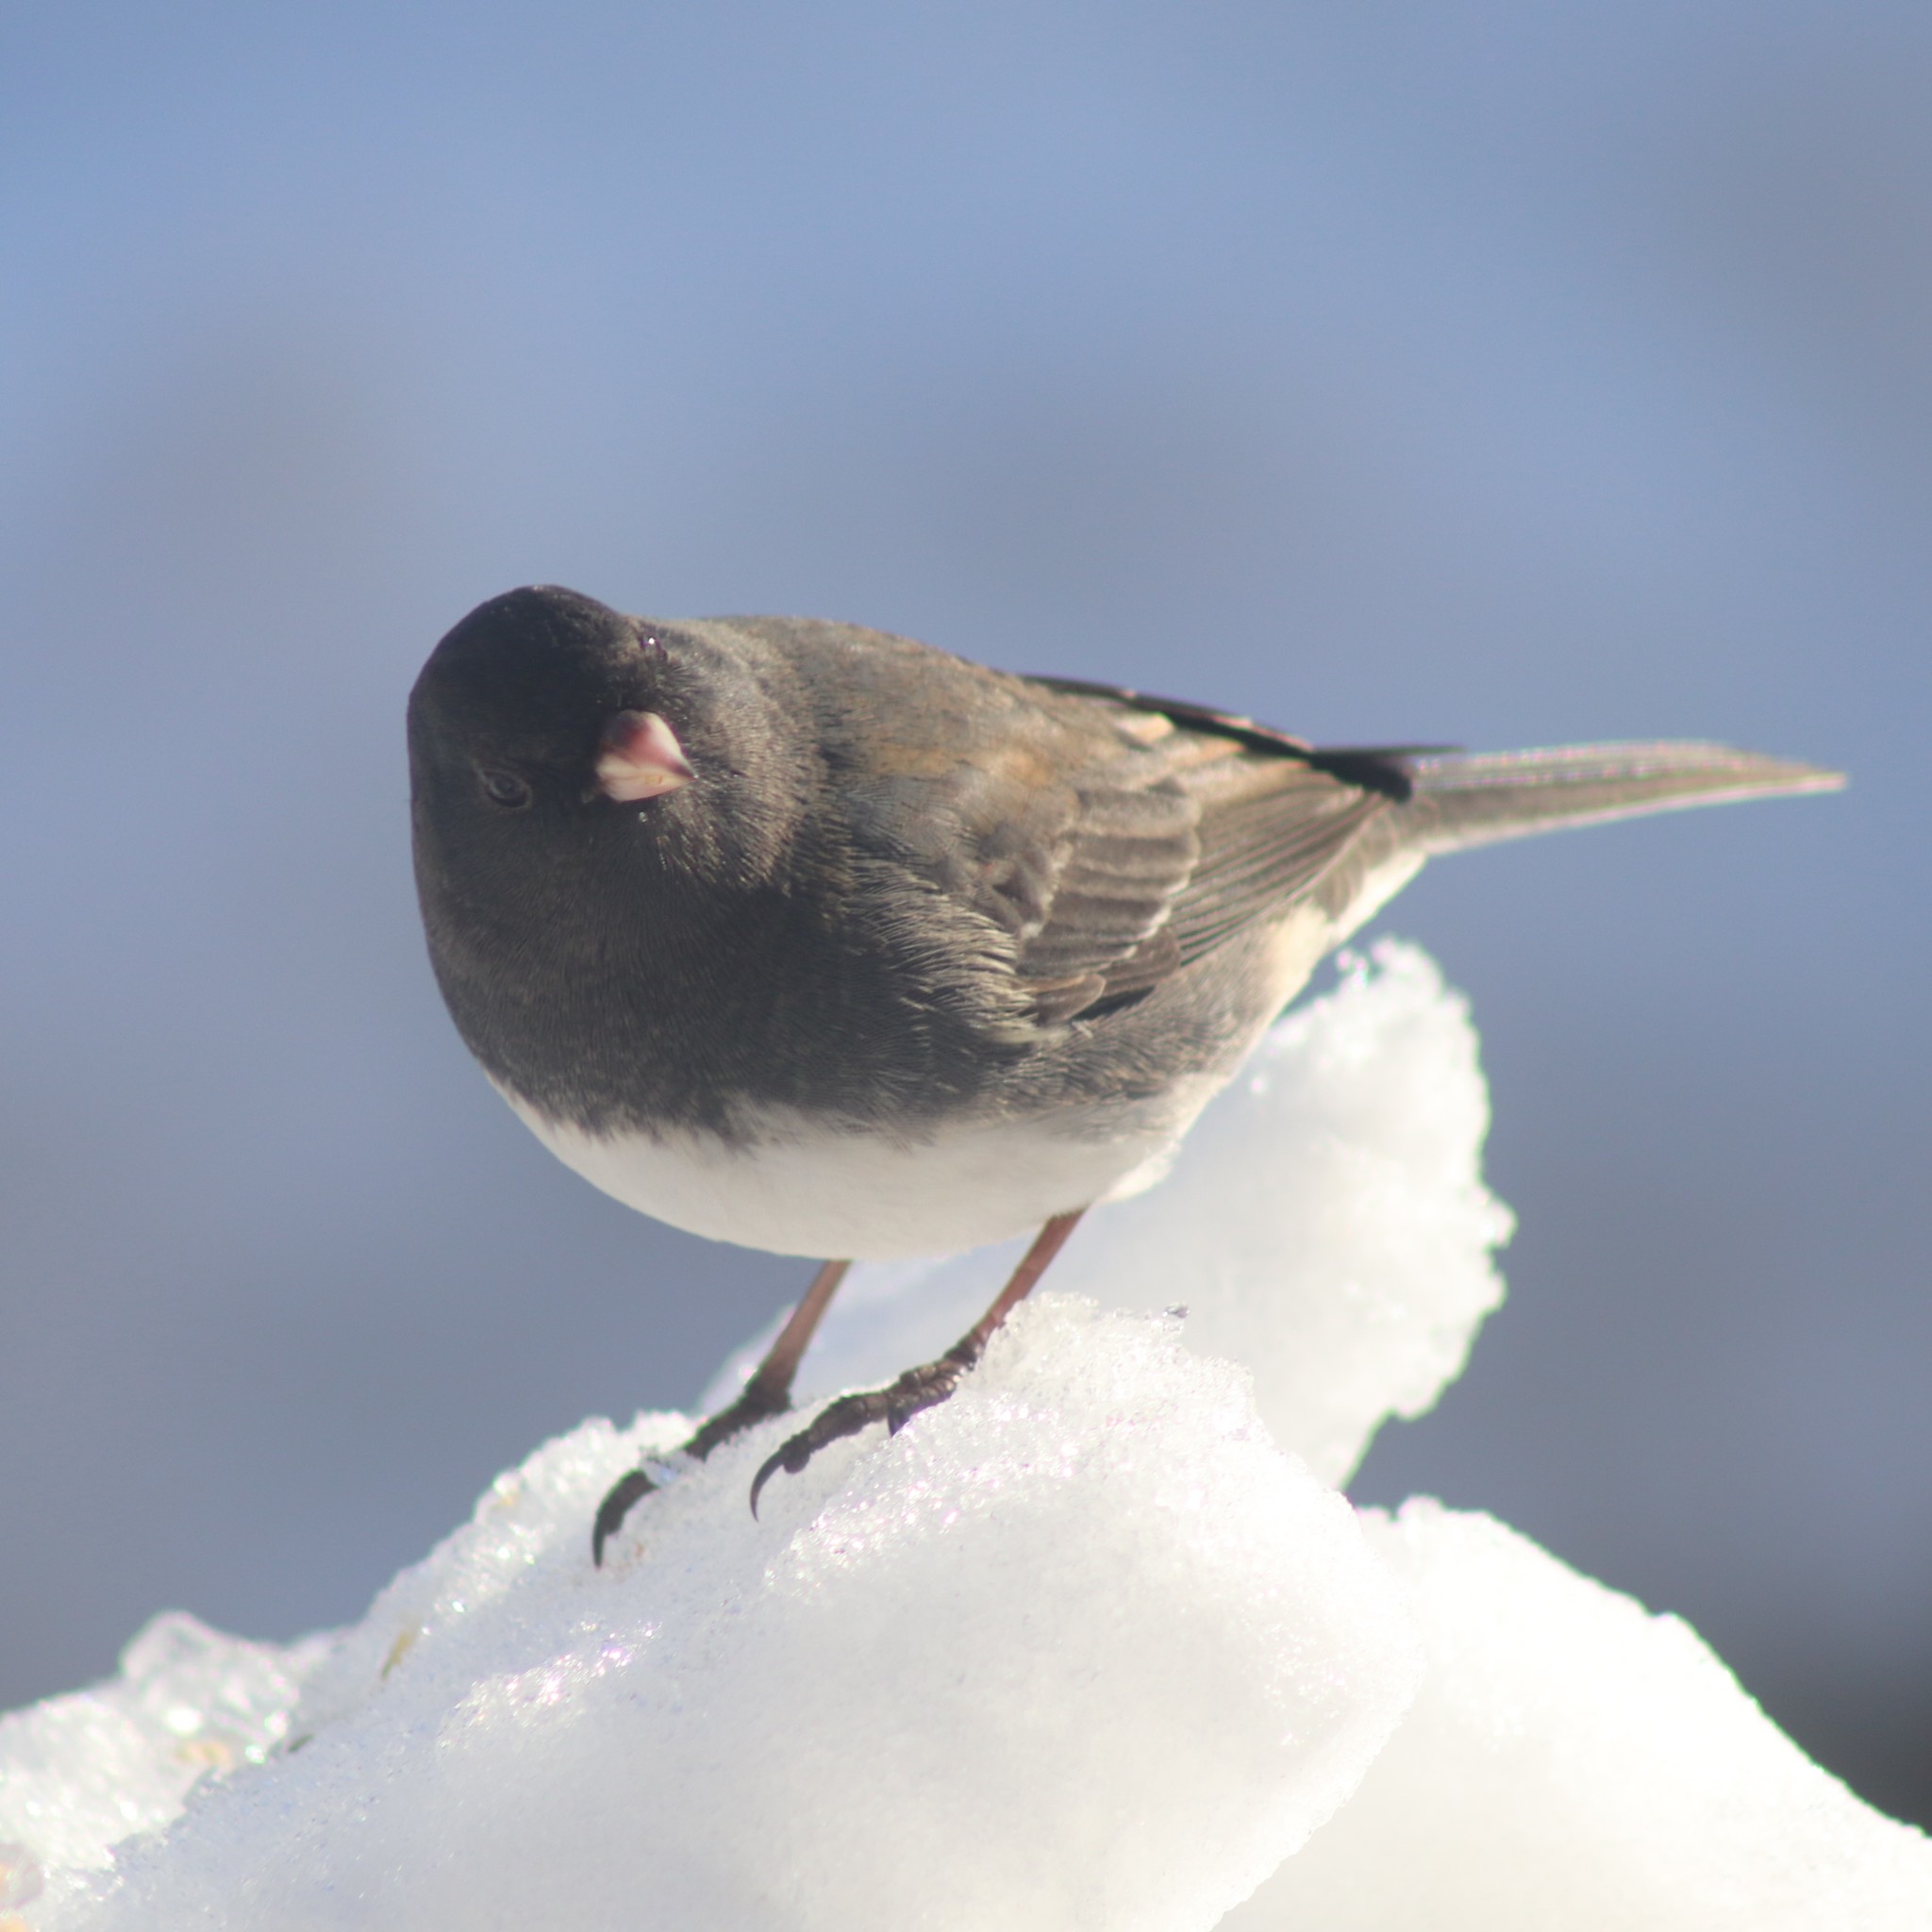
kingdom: Animalia
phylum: Chordata
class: Aves
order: Passeriformes
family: Passerellidae
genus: Junco
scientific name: Junco hyemalis
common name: Dark-eyed junco
